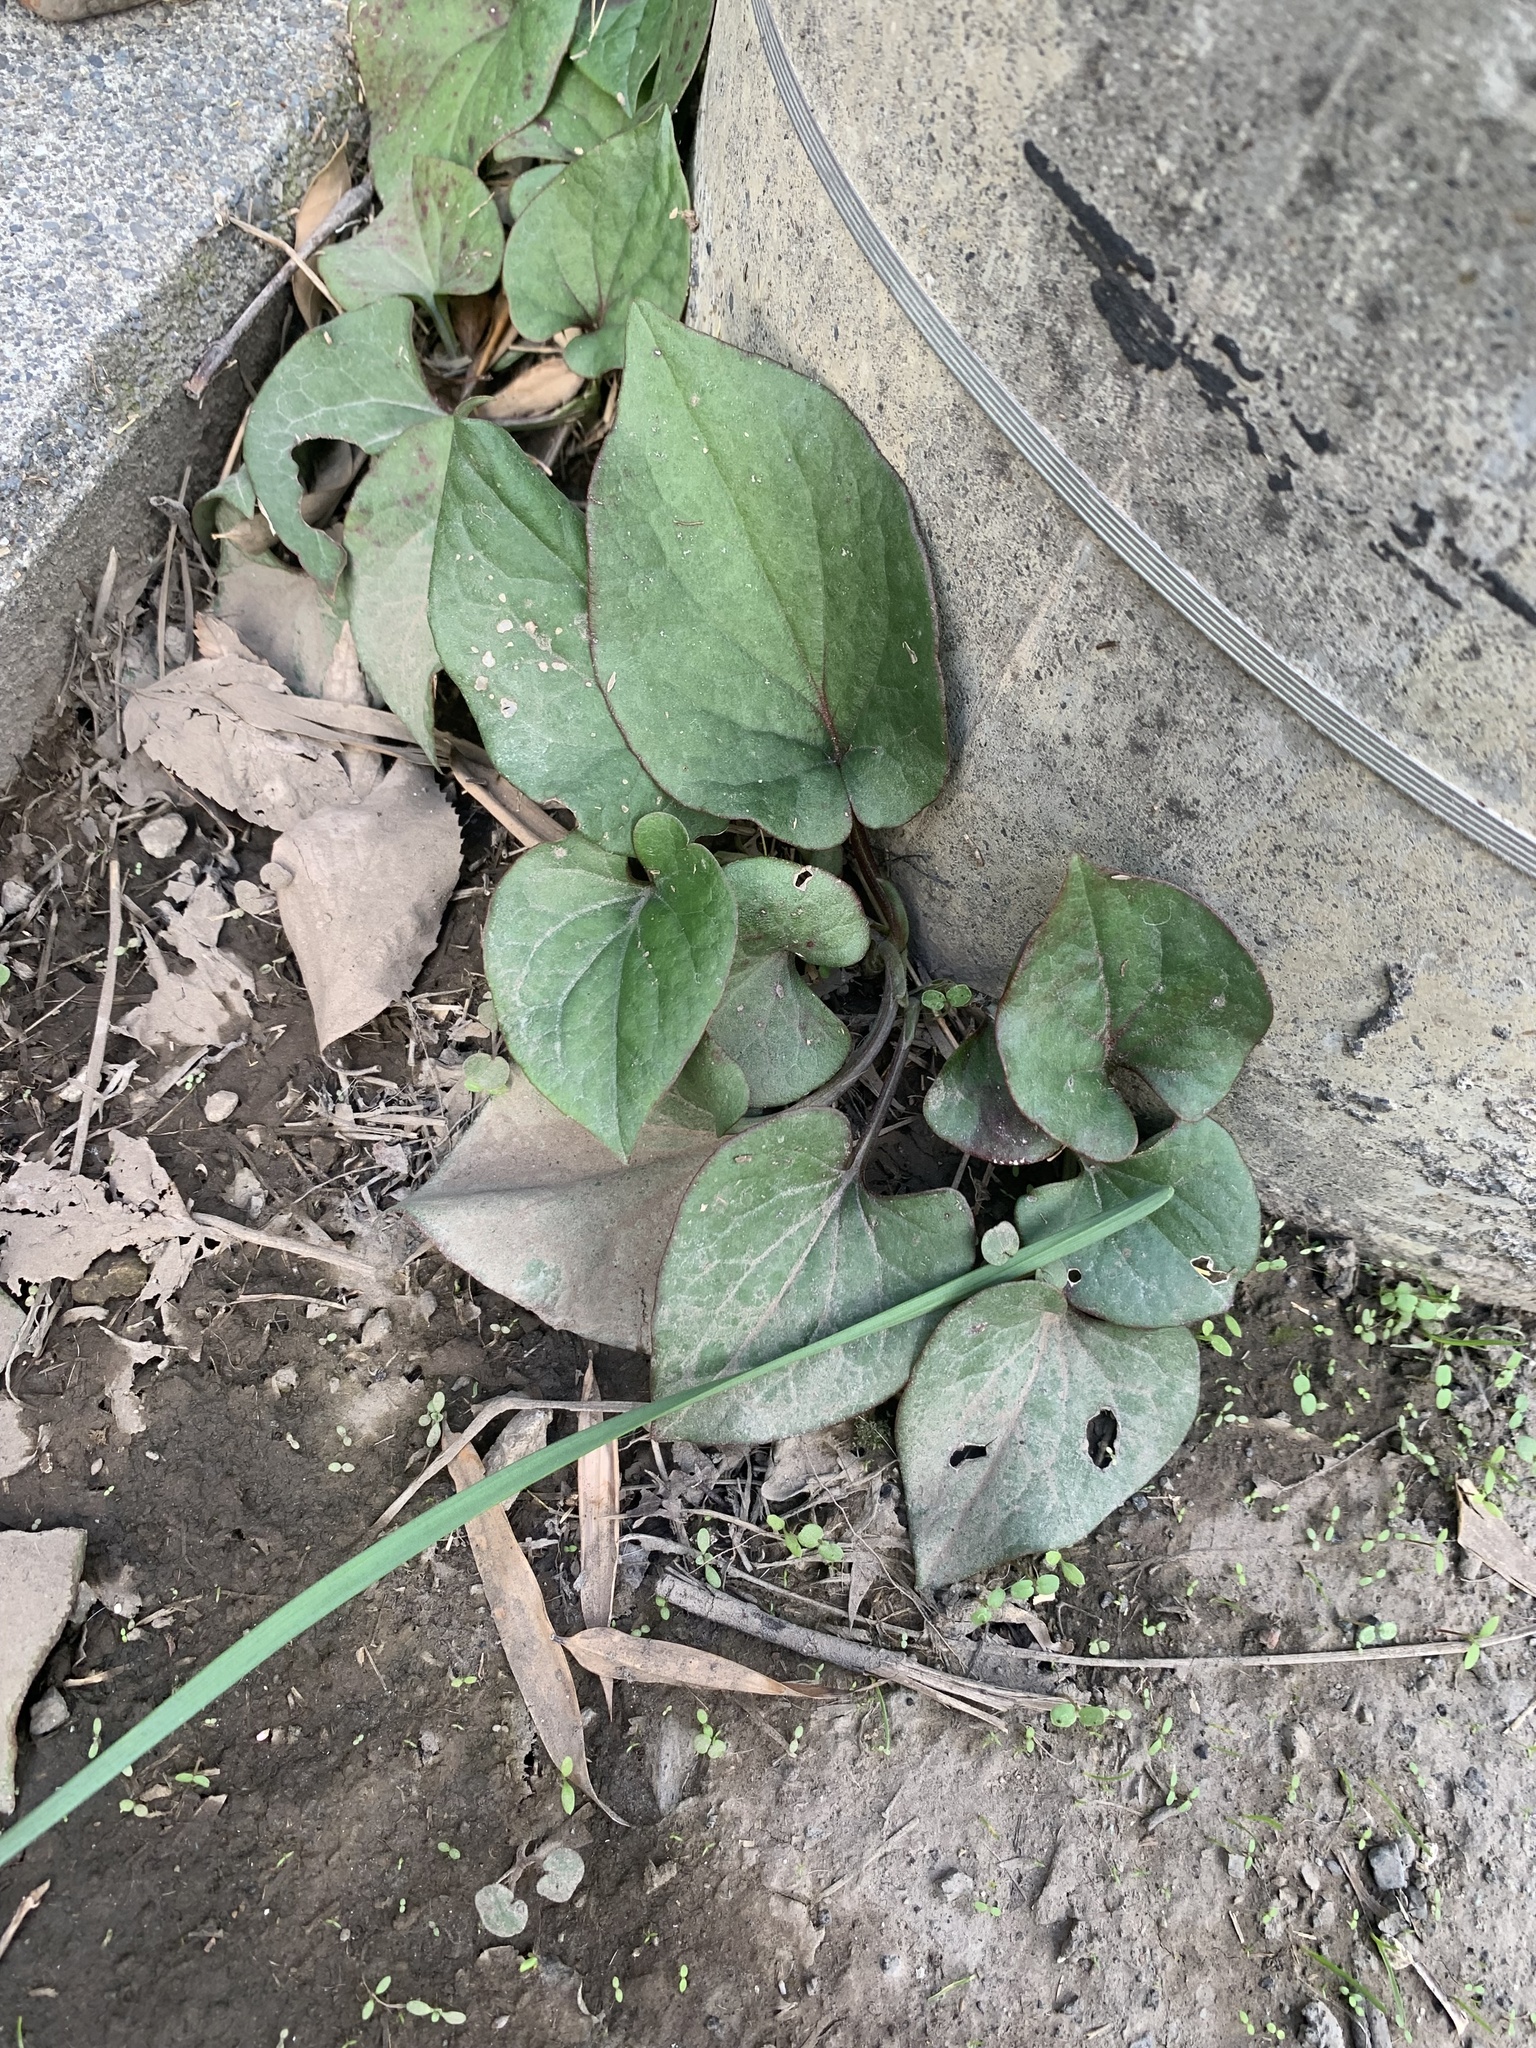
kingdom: Plantae
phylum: Tracheophyta
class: Magnoliopsida
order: Piperales
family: Saururaceae
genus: Houttuynia
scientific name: Houttuynia cordata
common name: Chameleon
